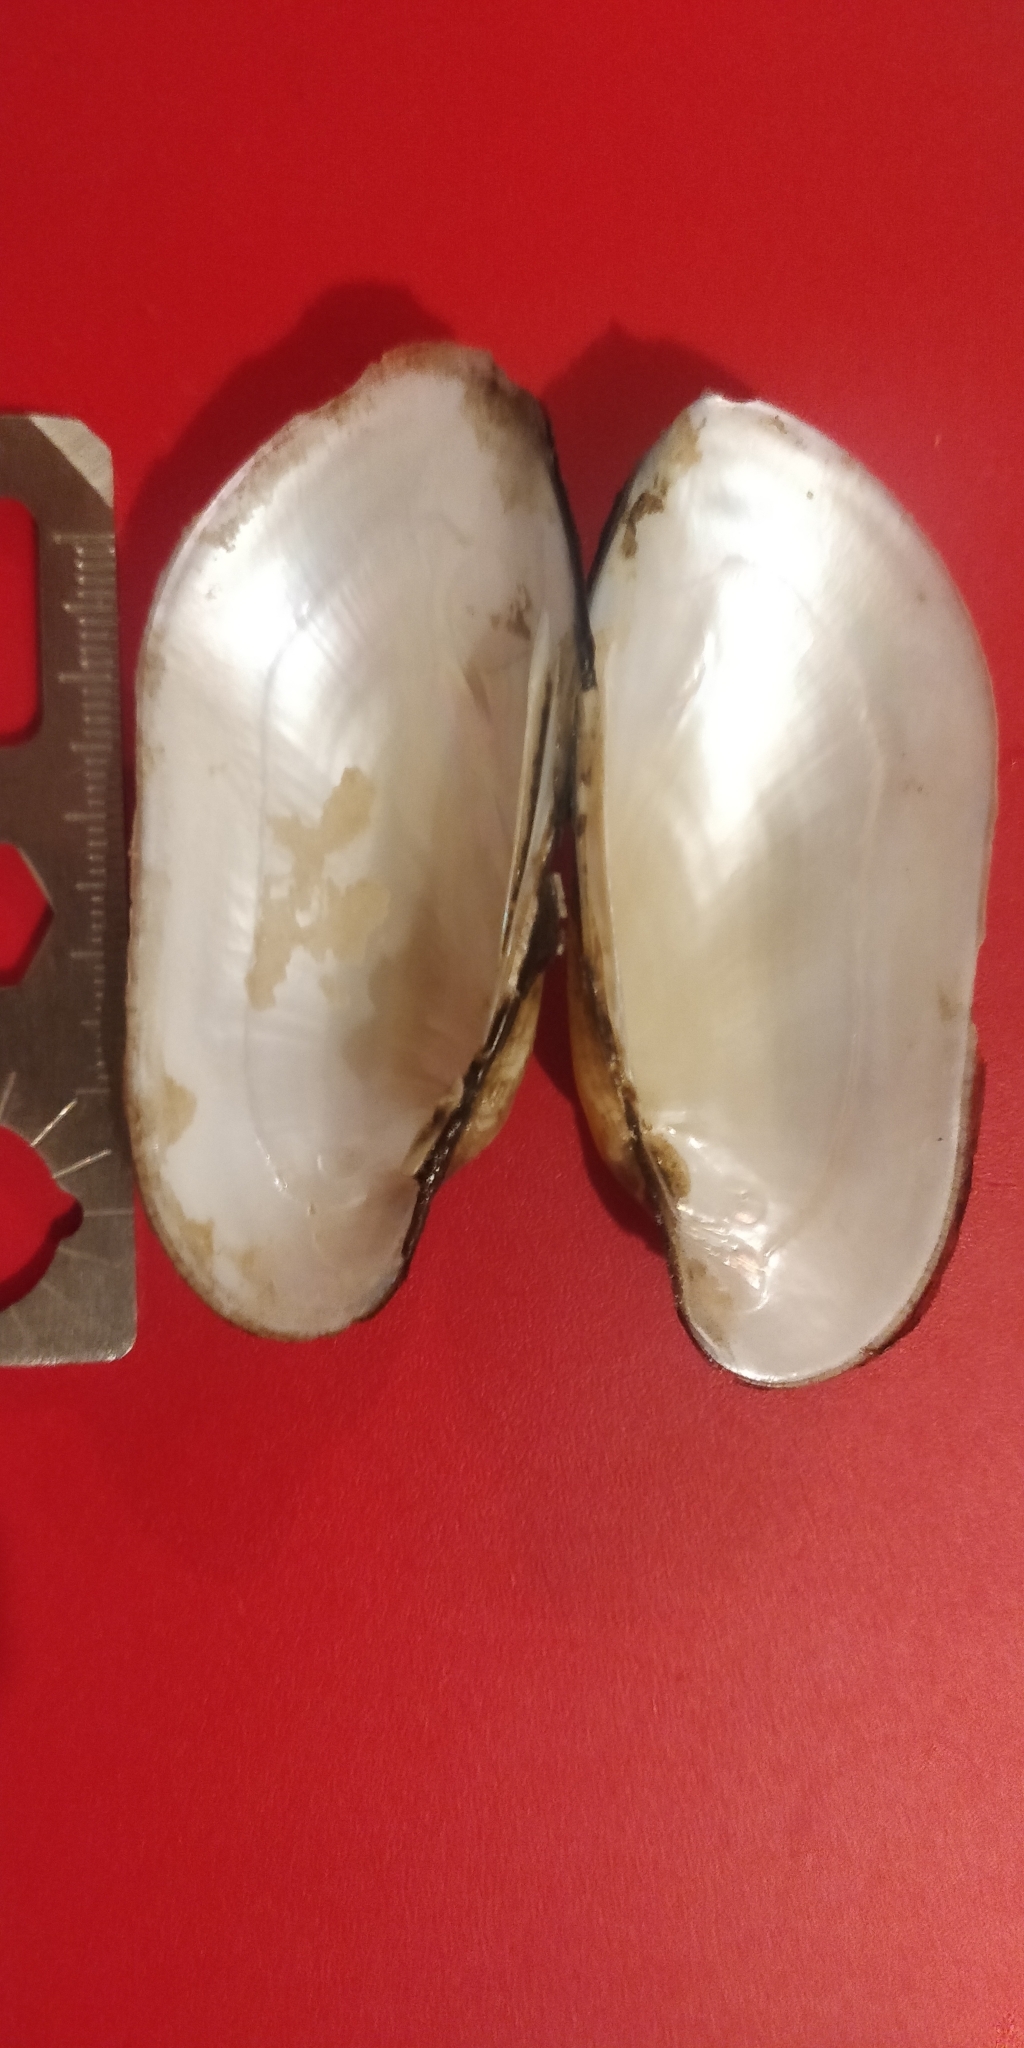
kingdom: Animalia
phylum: Mollusca
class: Bivalvia
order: Unionida
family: Unionidae
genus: Lampsilis
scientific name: Lampsilis teres
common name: Yellow sandshell
